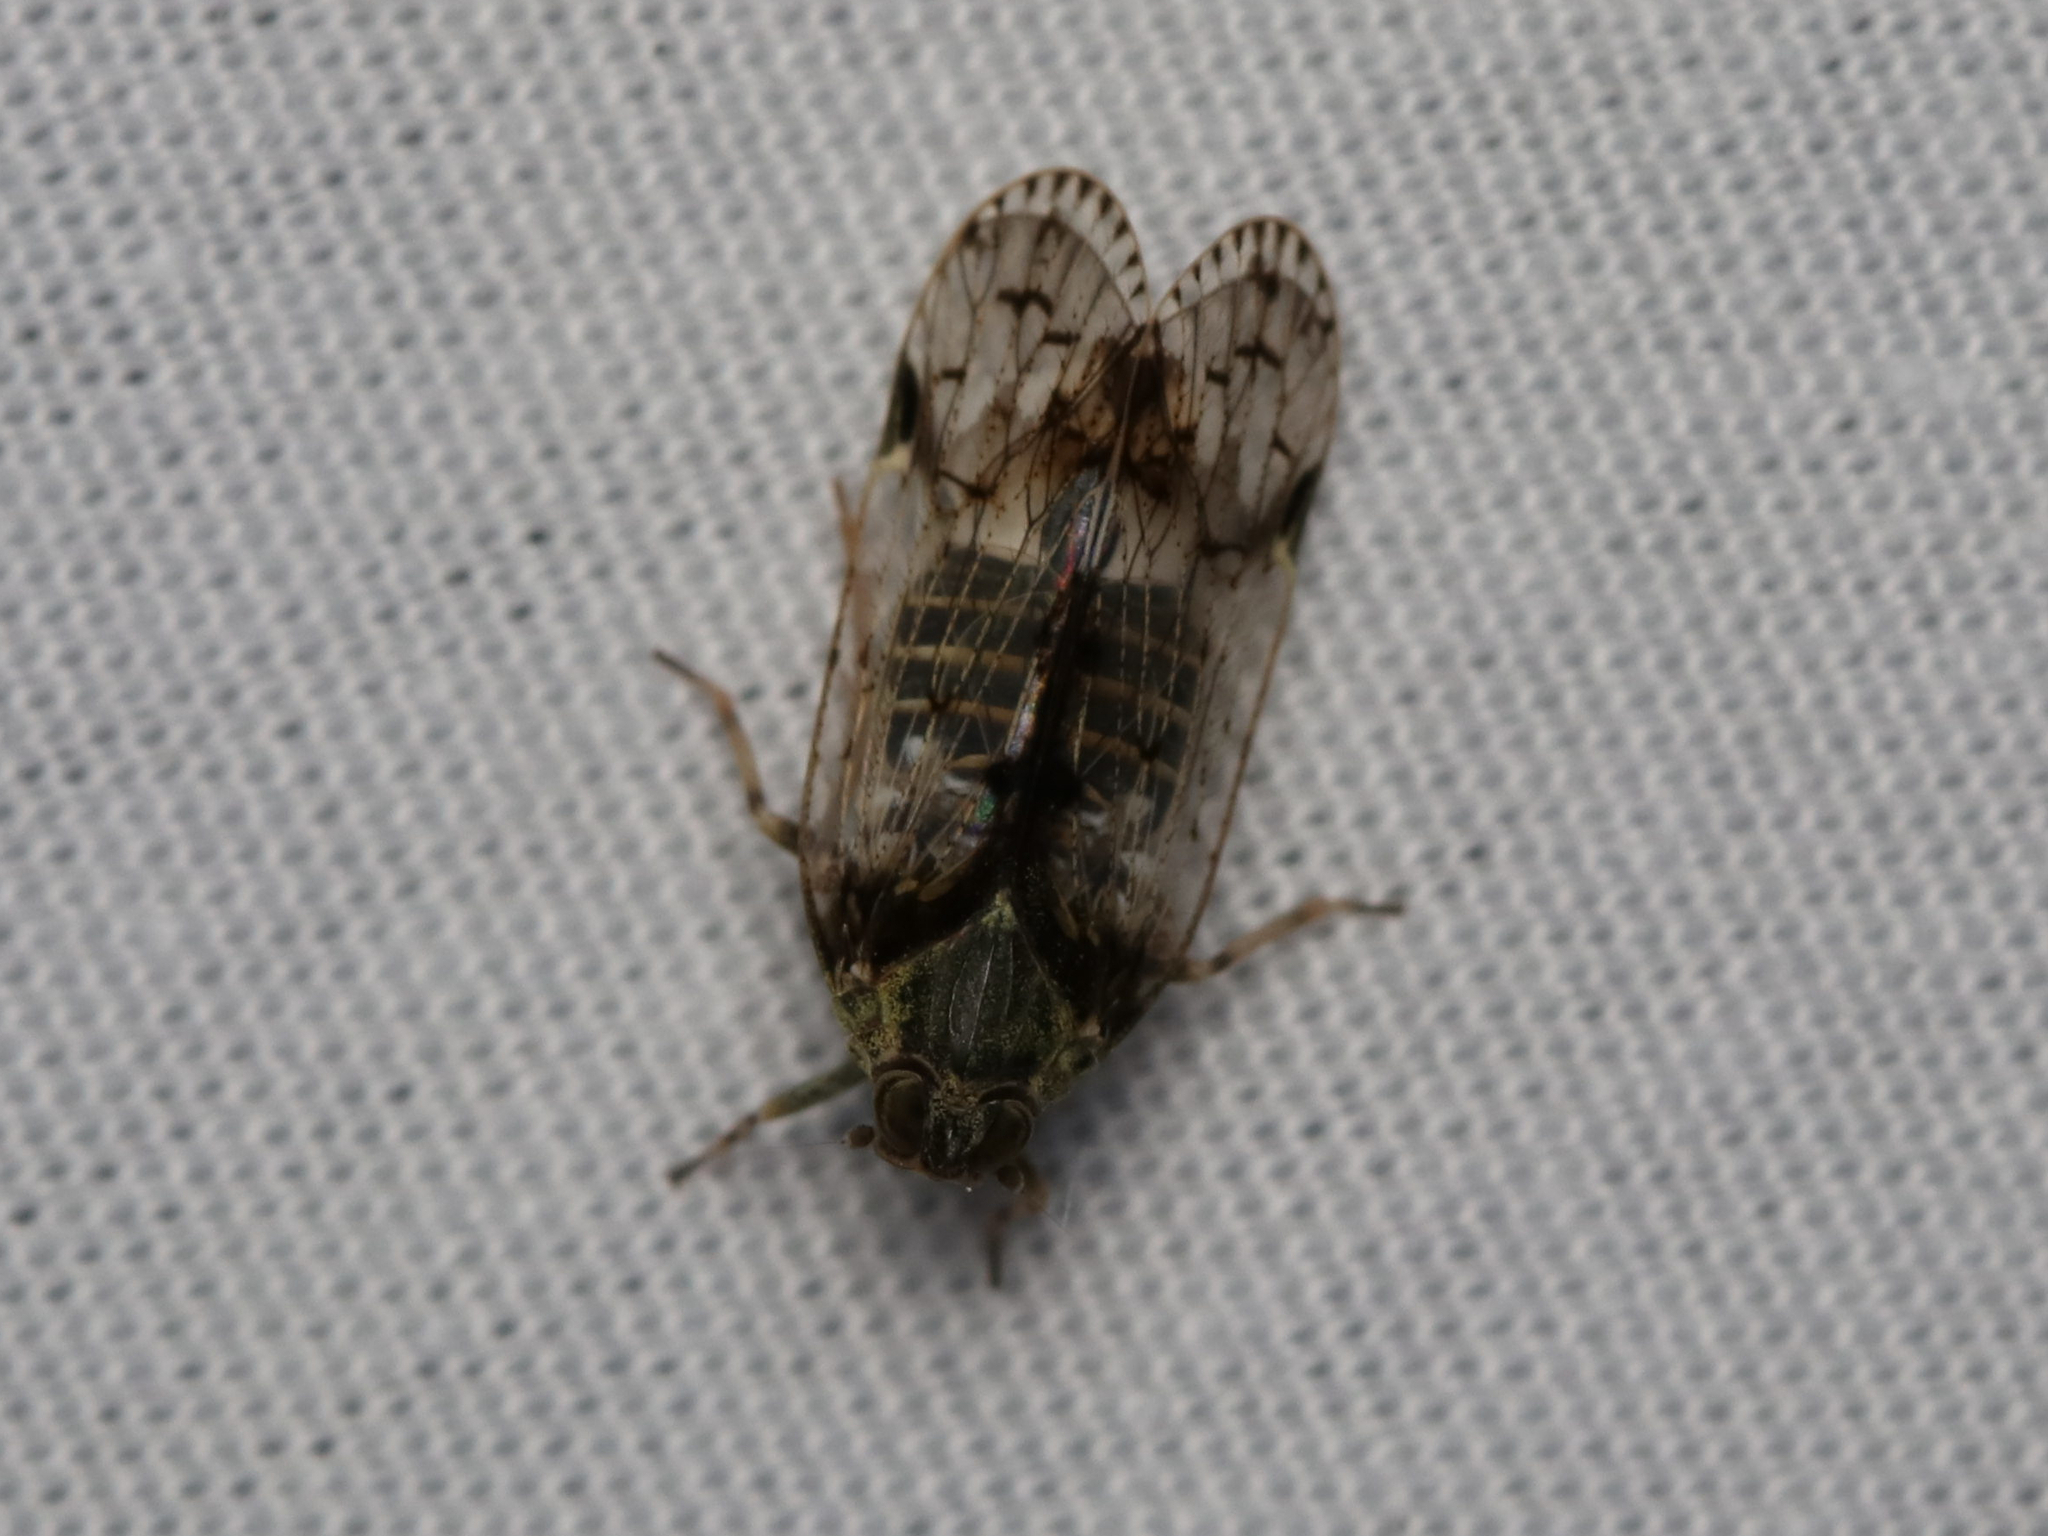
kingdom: Animalia
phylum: Arthropoda
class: Insecta
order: Hemiptera
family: Cixiidae
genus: Melanoliarus
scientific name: Melanoliarus placitus
